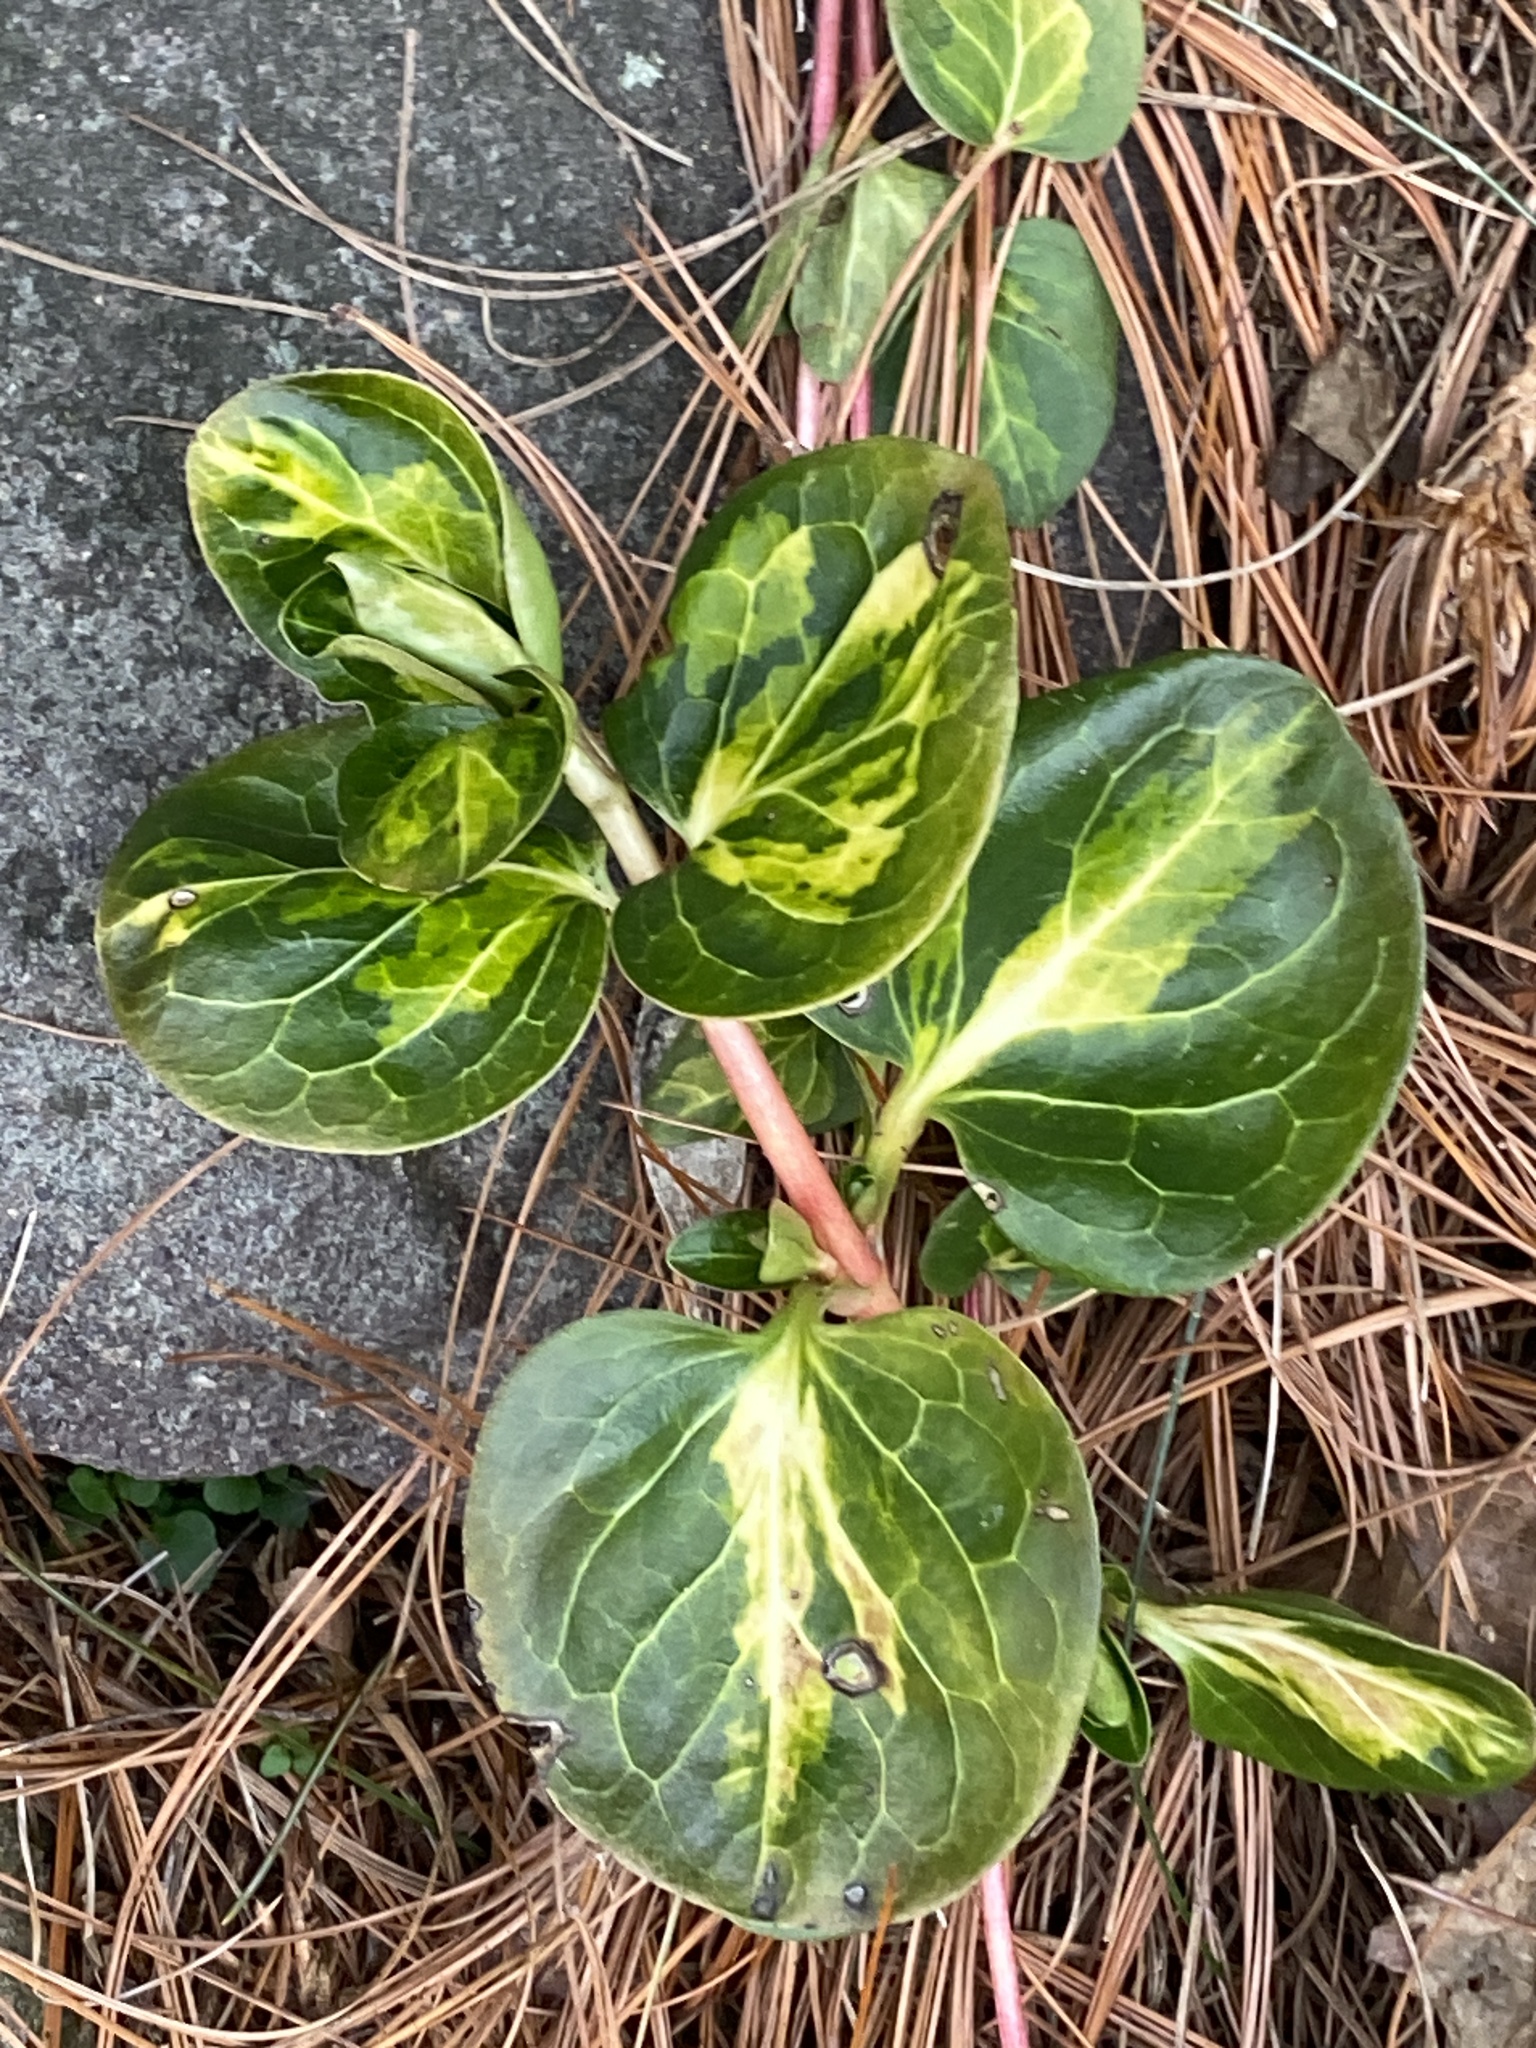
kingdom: Plantae
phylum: Tracheophyta
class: Magnoliopsida
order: Gentianales
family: Apocynaceae
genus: Vinca
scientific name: Vinca major
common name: Greater periwinkle
